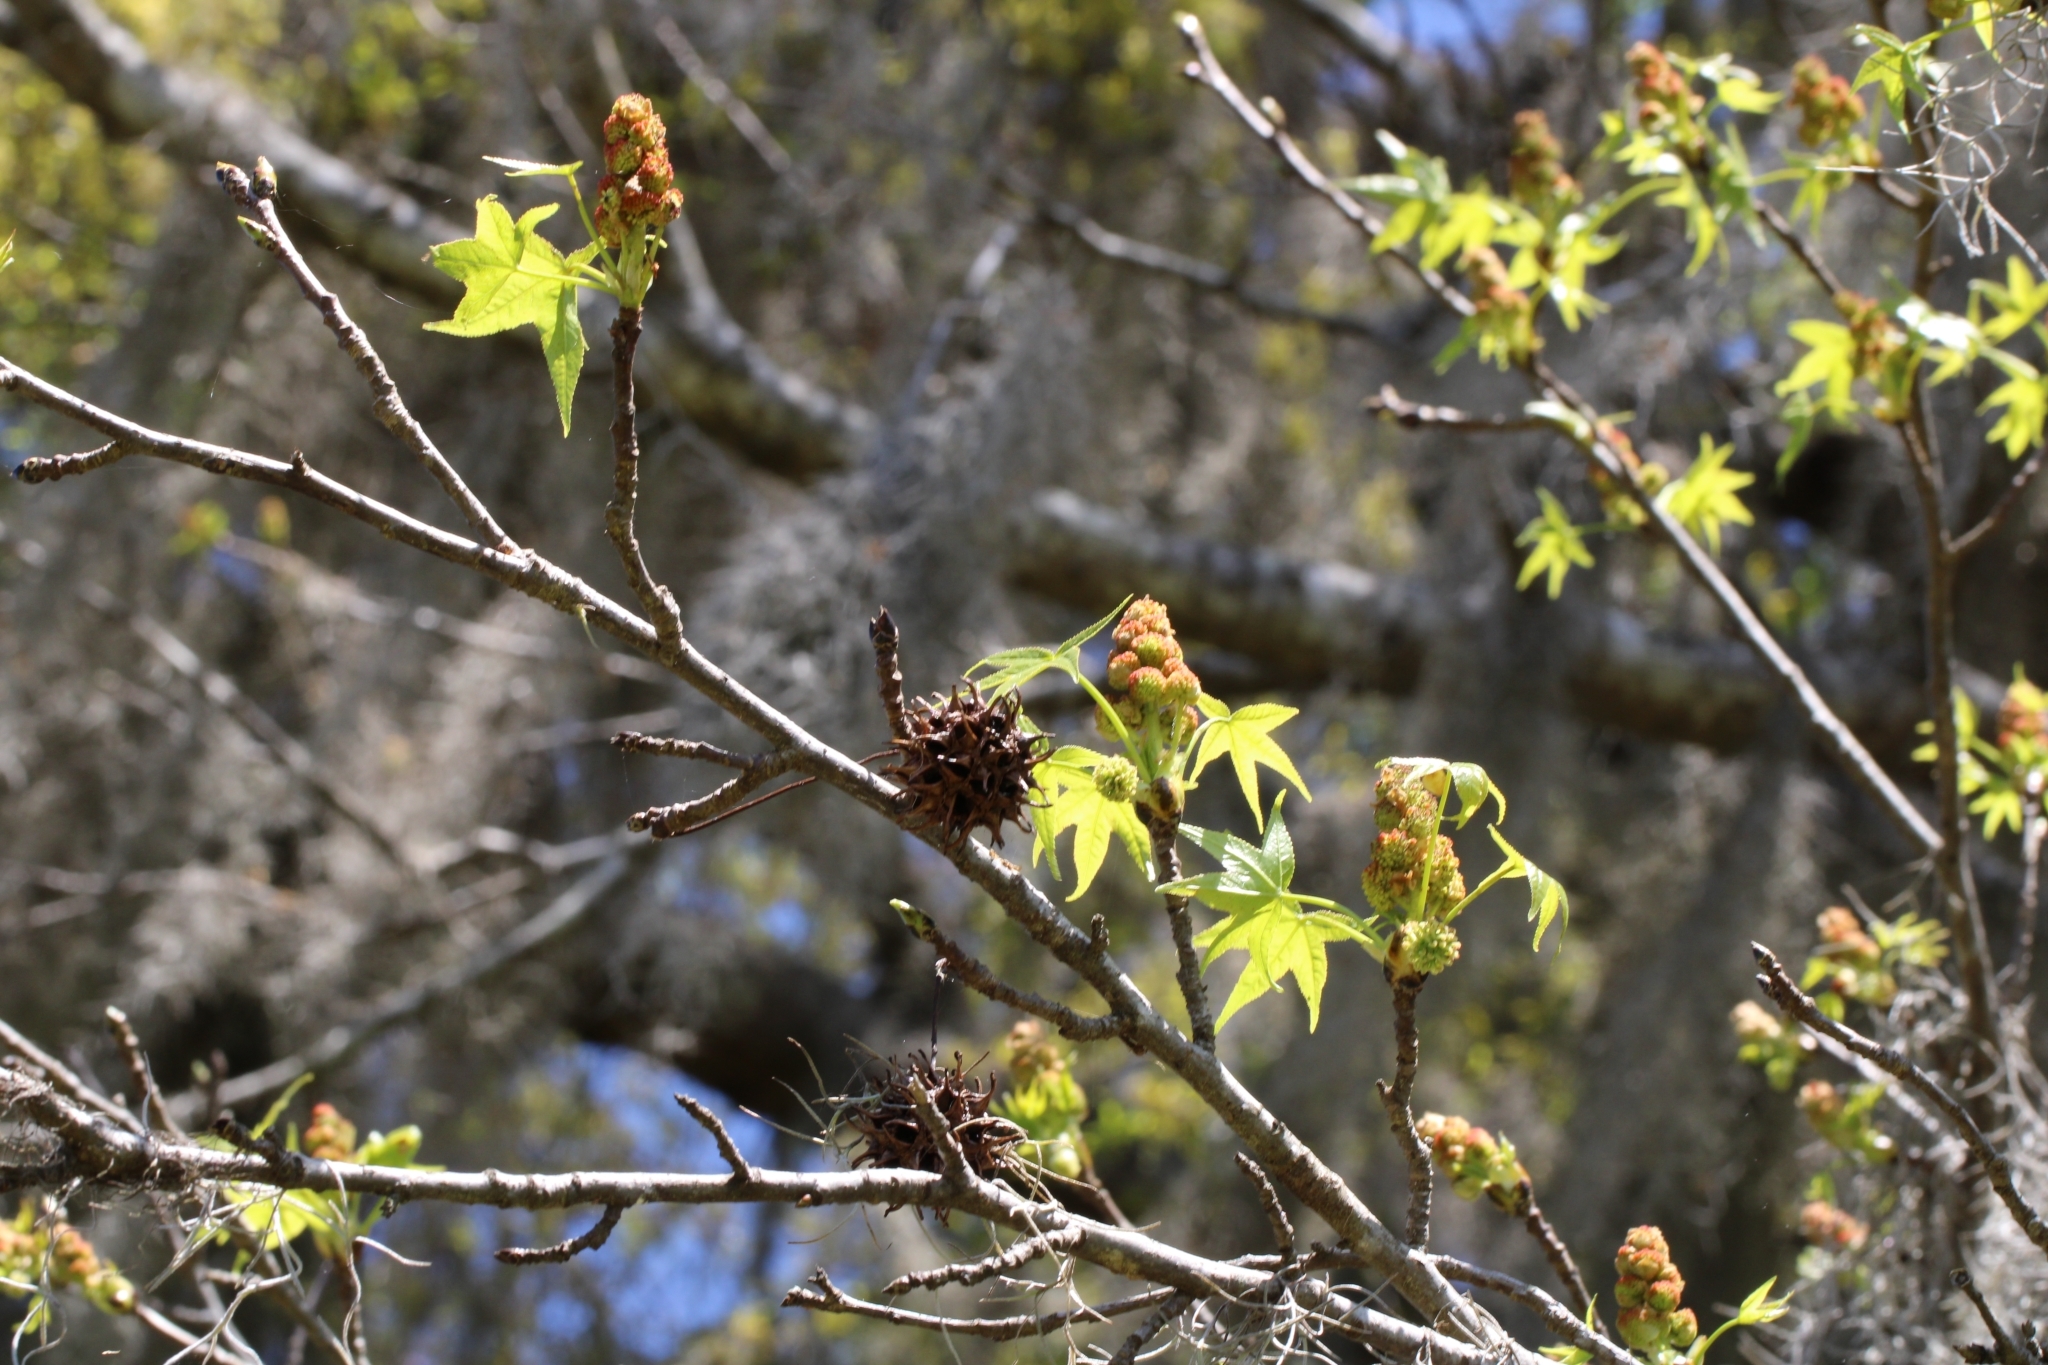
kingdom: Plantae
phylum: Tracheophyta
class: Magnoliopsida
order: Saxifragales
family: Altingiaceae
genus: Liquidambar
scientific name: Liquidambar styraciflua
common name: Sweet gum
